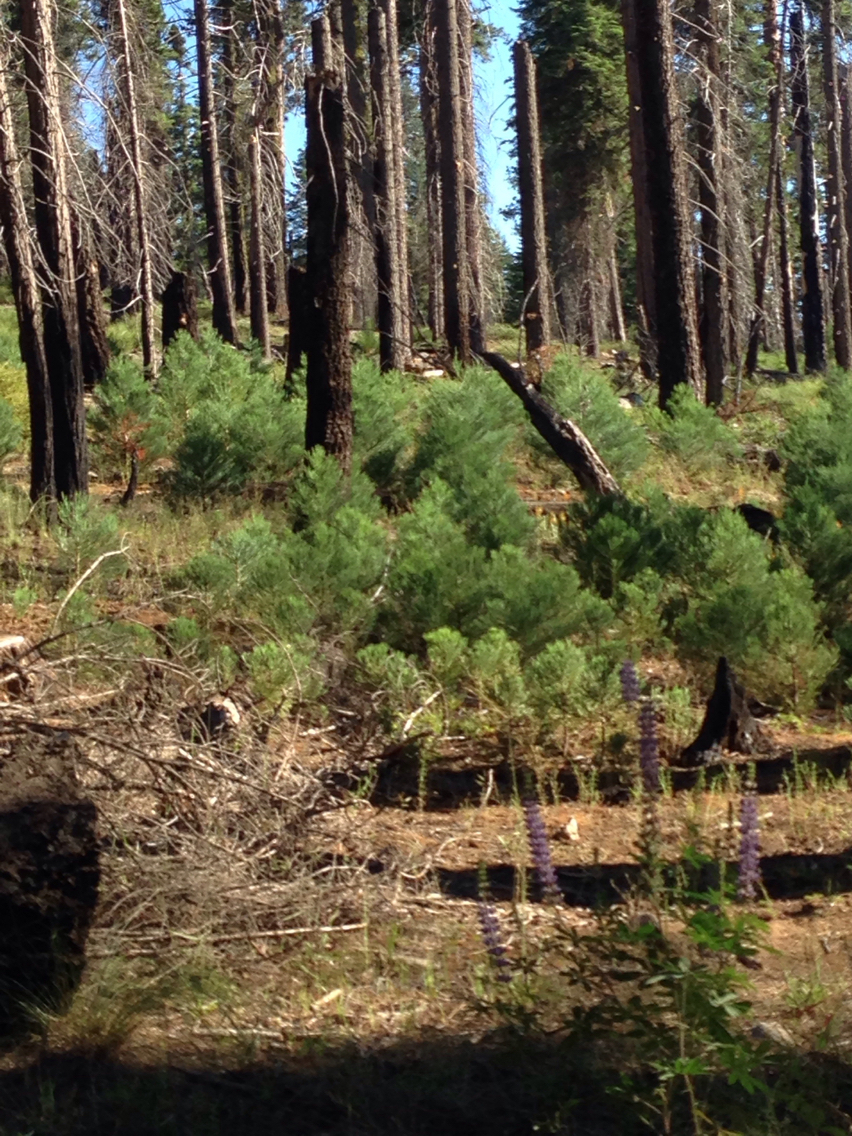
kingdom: Plantae
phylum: Tracheophyta
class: Pinopsida
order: Pinales
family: Cupressaceae
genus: Sequoiadendron
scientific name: Sequoiadendron giganteum
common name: Wellingtonia
